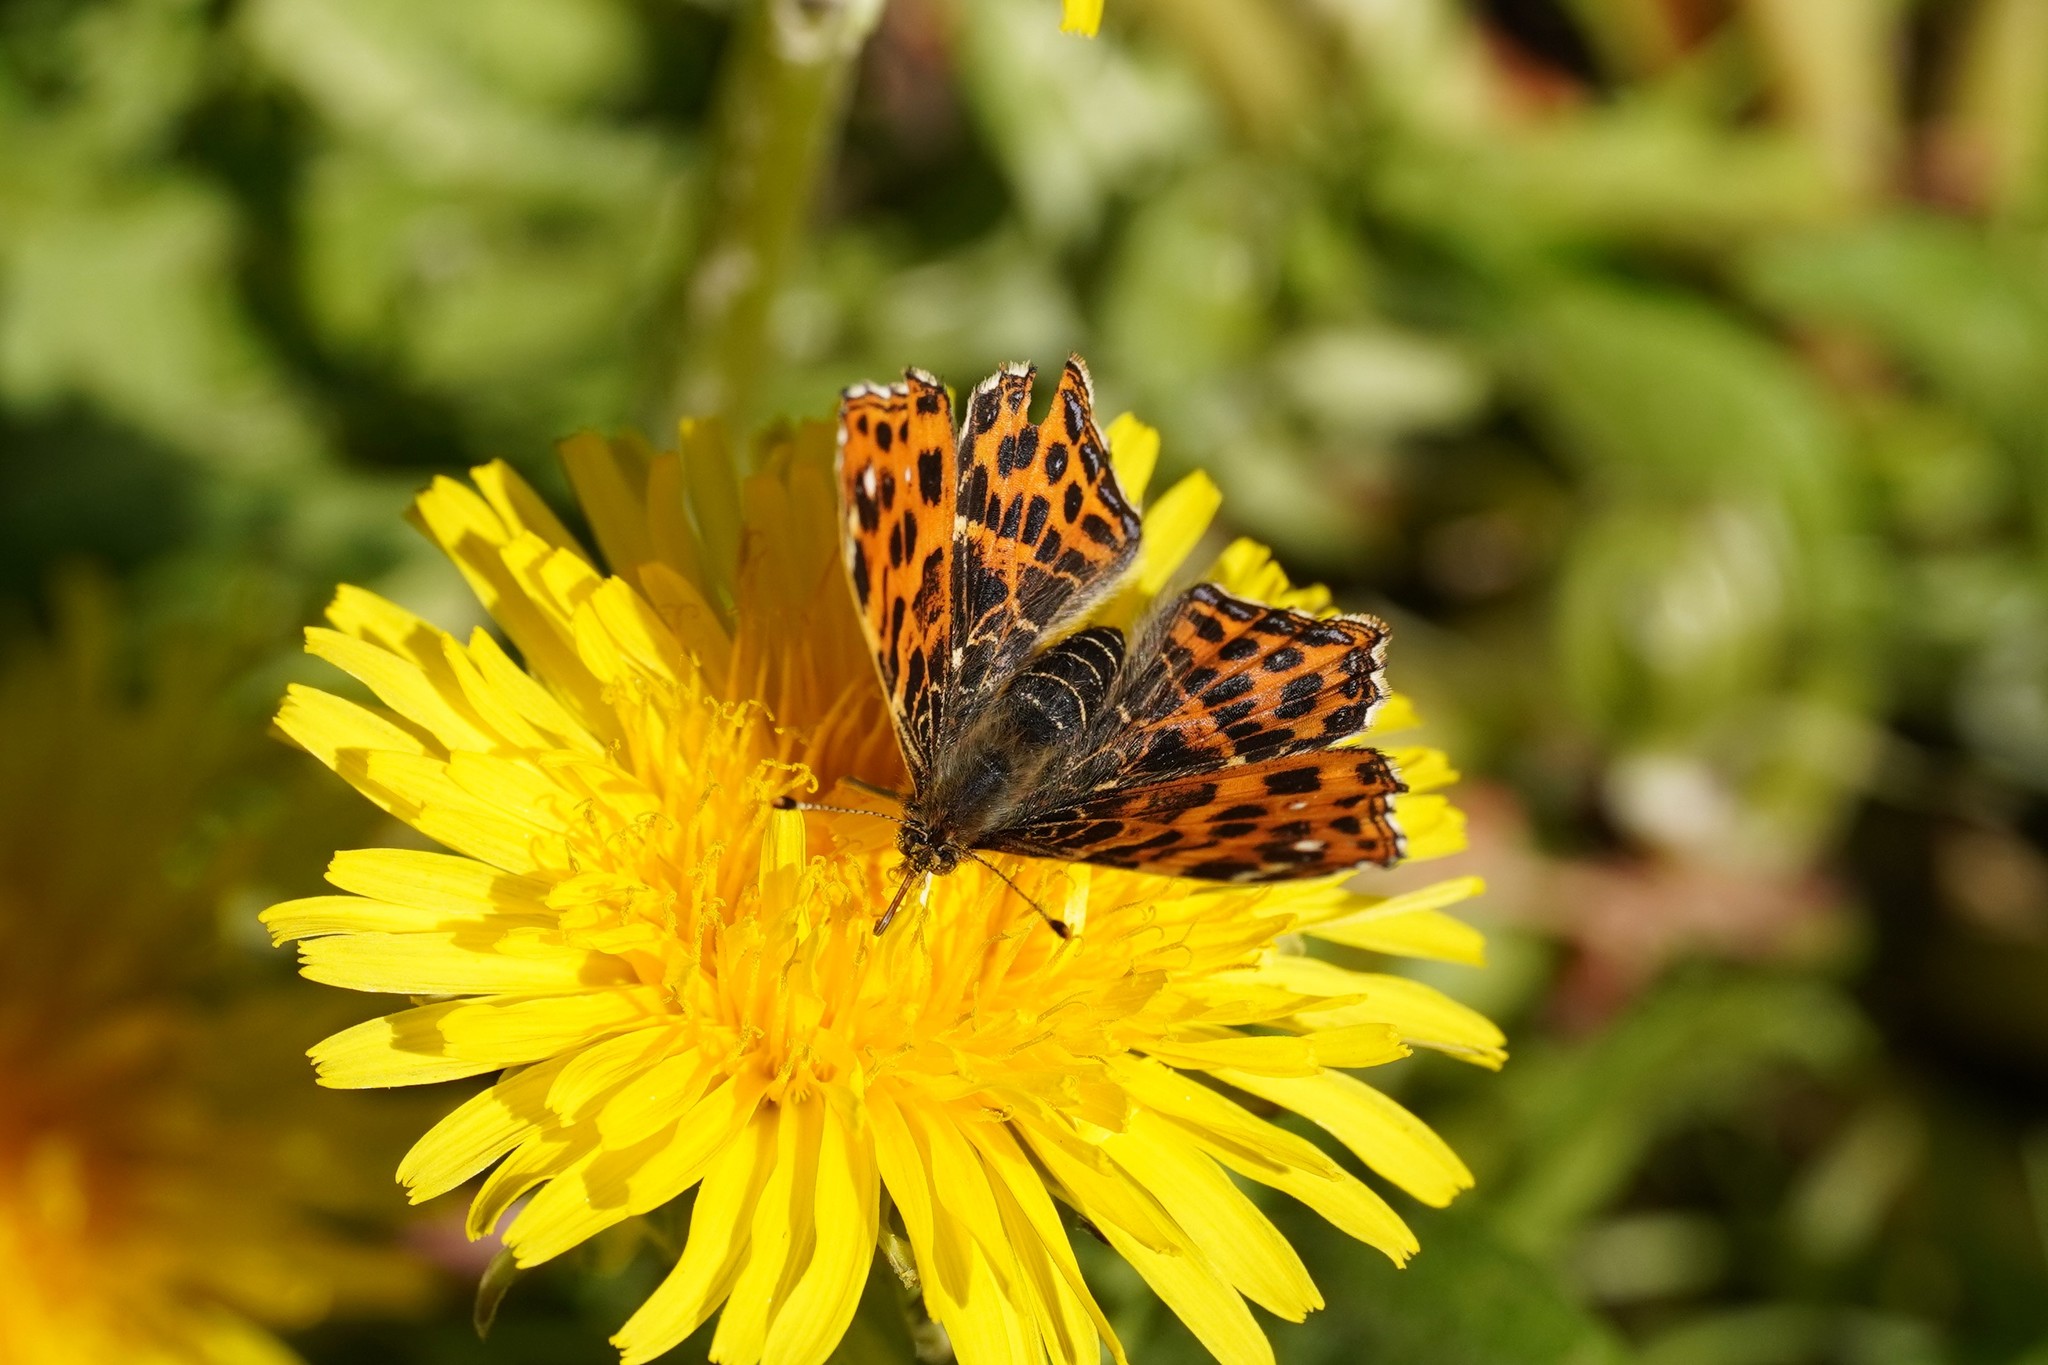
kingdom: Animalia
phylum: Arthropoda
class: Insecta
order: Lepidoptera
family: Nymphalidae
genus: Araschnia
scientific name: Araschnia levana
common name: Map butterfly
